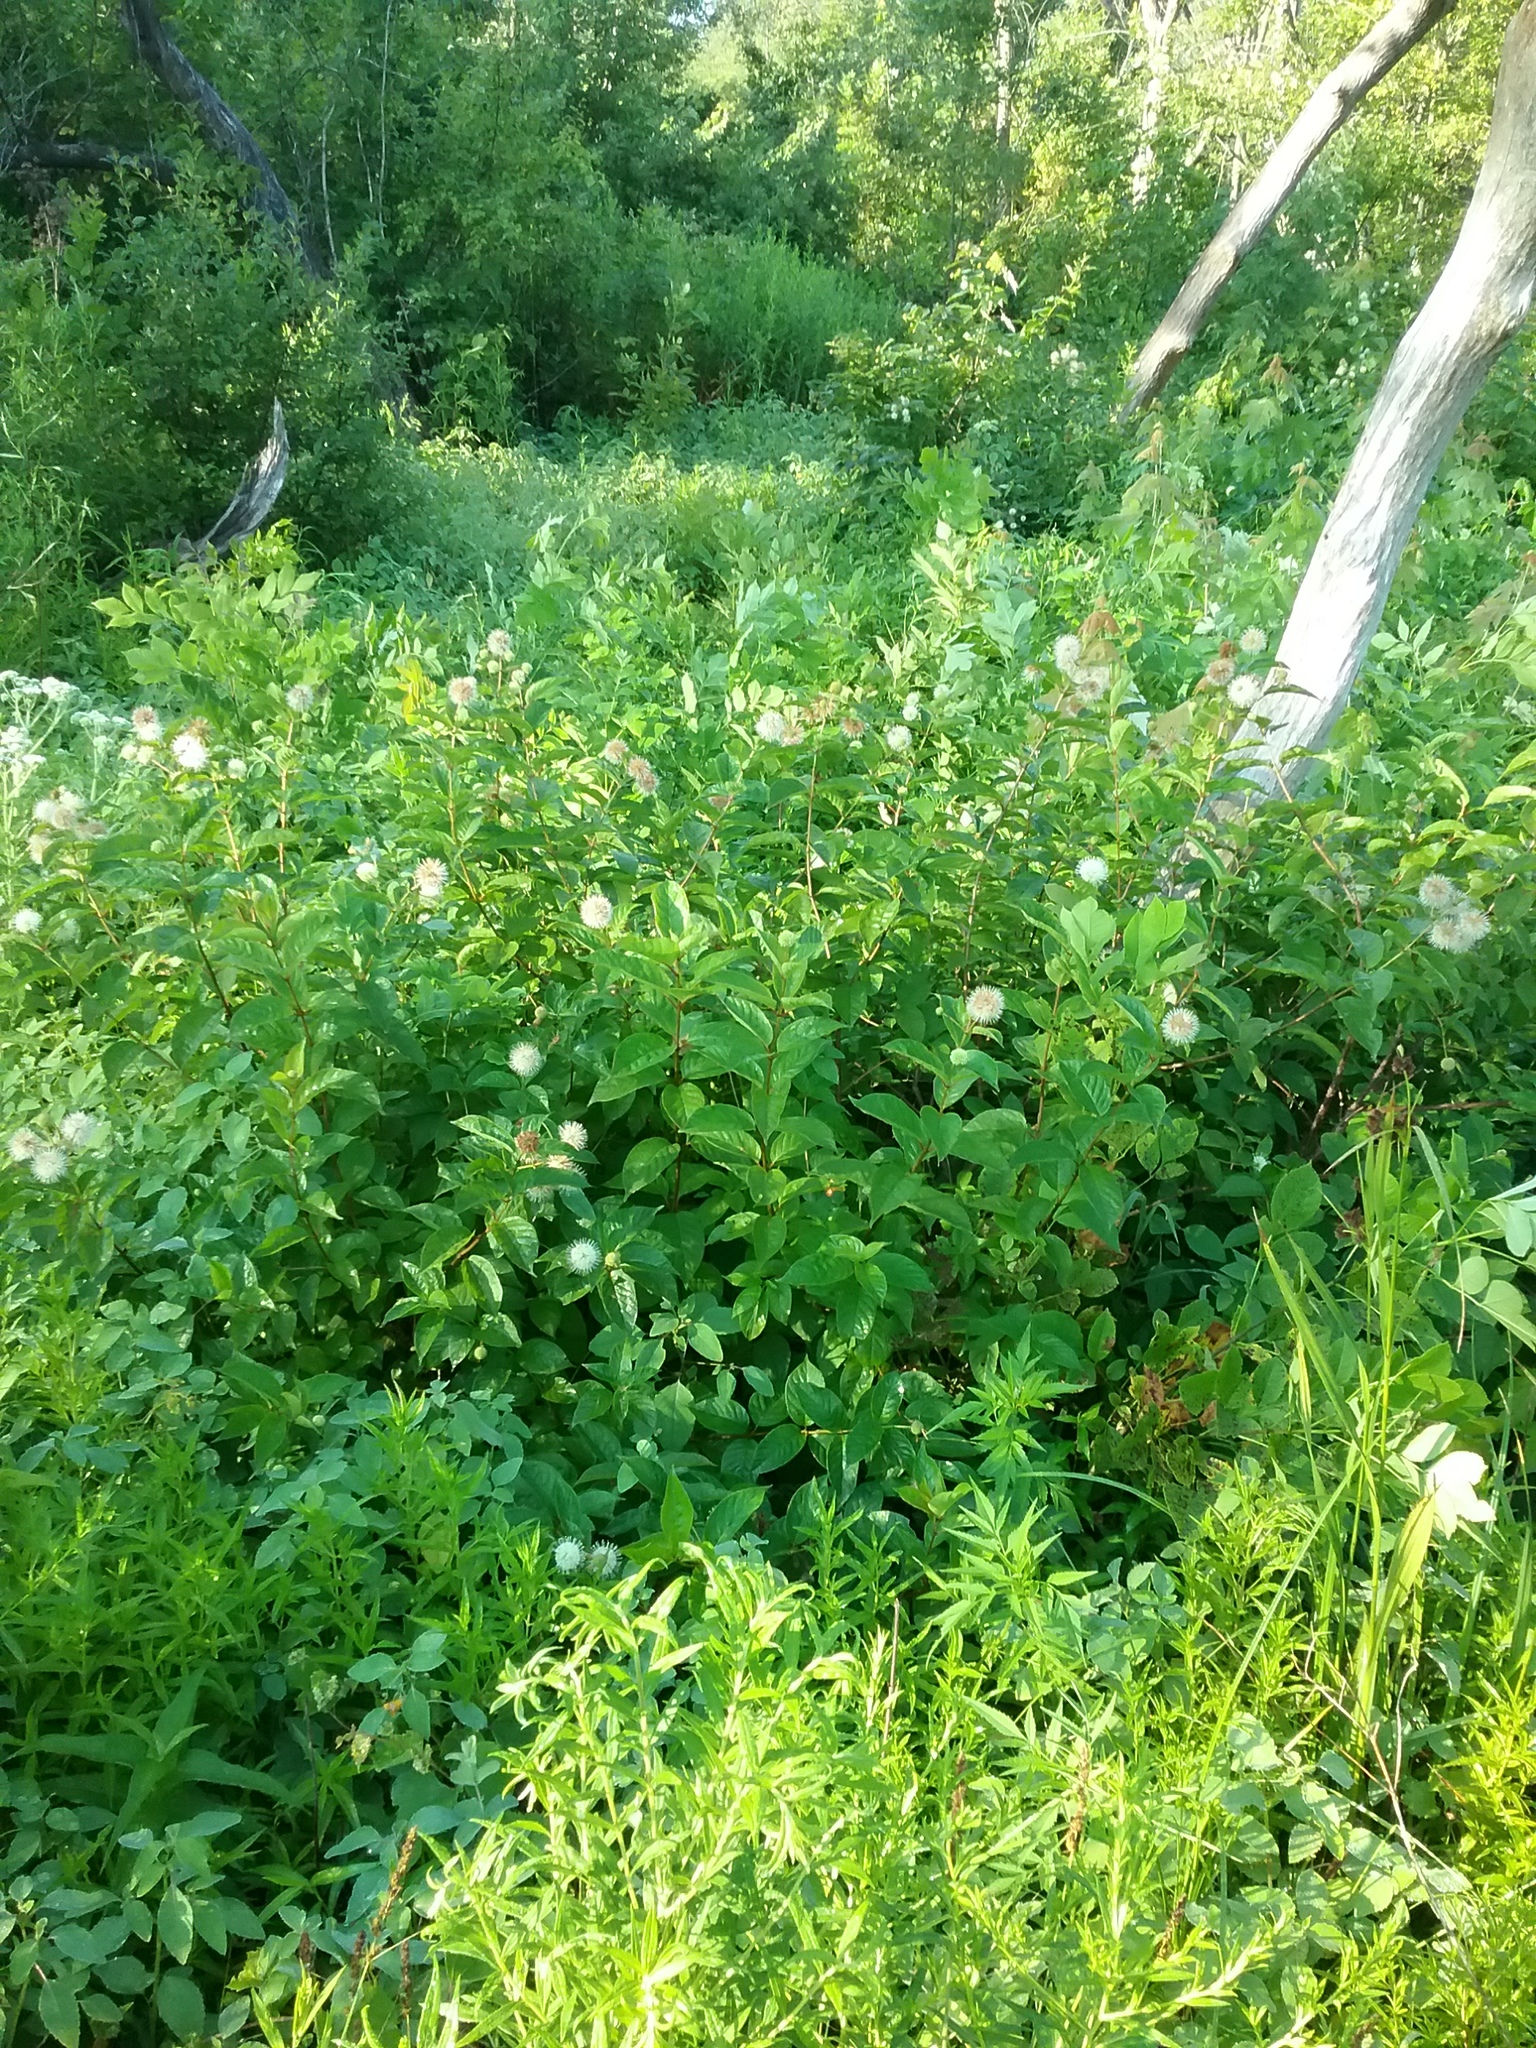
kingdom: Plantae
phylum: Tracheophyta
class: Magnoliopsida
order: Gentianales
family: Rubiaceae
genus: Cephalanthus
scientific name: Cephalanthus occidentalis
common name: Button-willow
